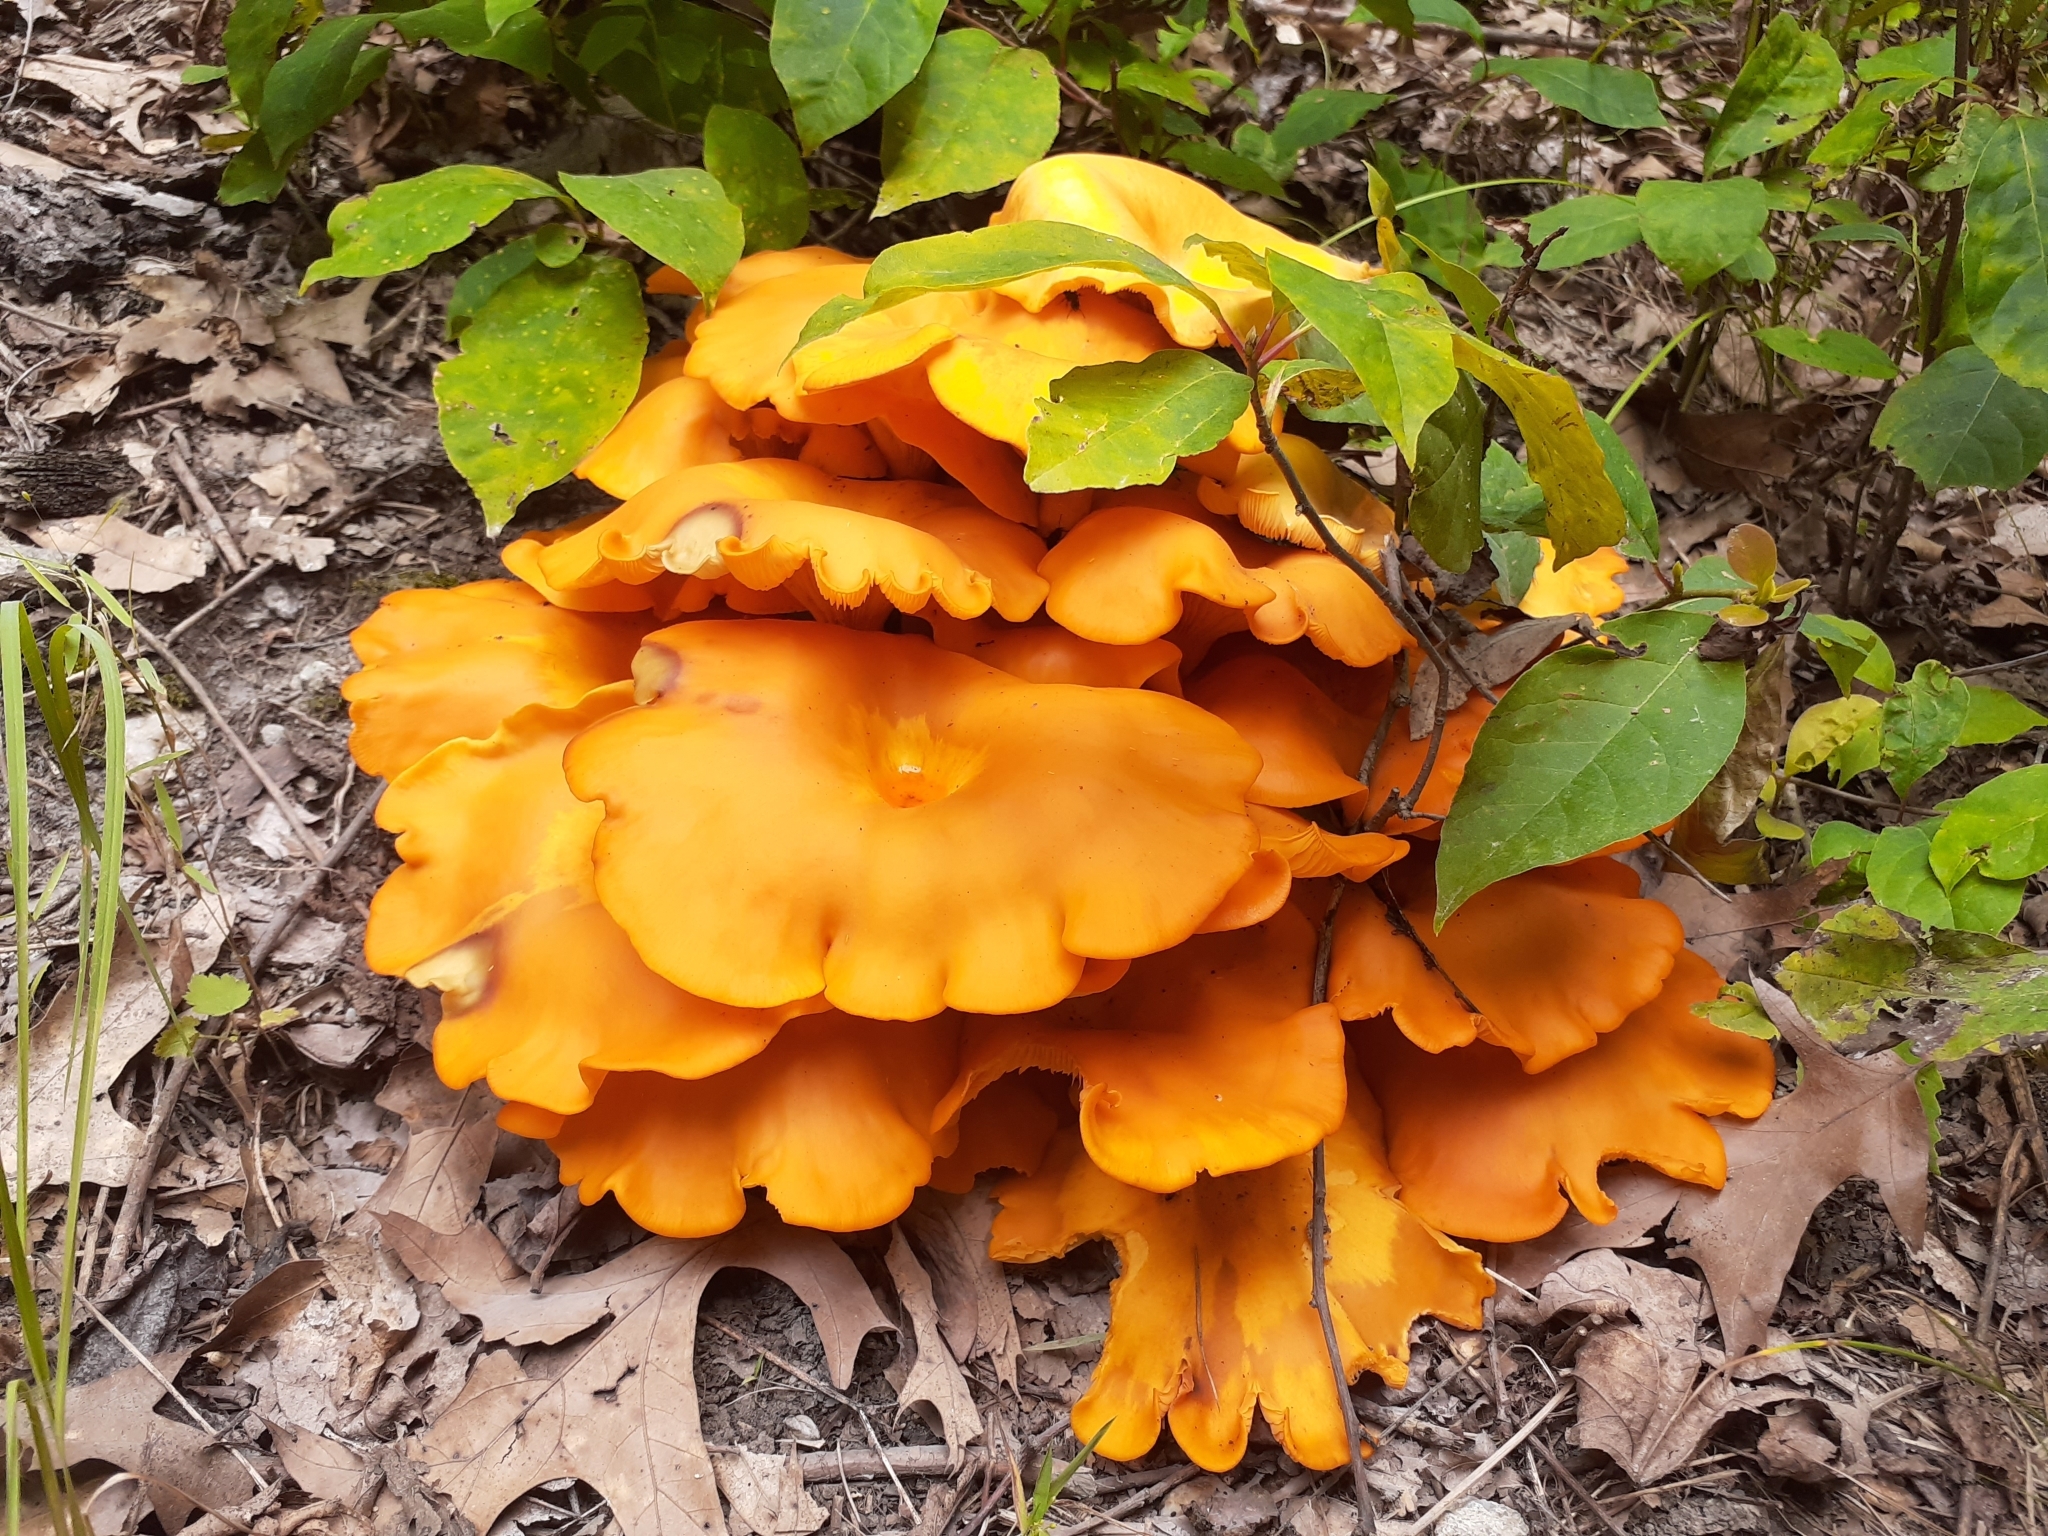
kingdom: Fungi
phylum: Basidiomycota
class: Agaricomycetes
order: Agaricales
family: Omphalotaceae
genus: Omphalotus
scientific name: Omphalotus illudens
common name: Jack o lantern
